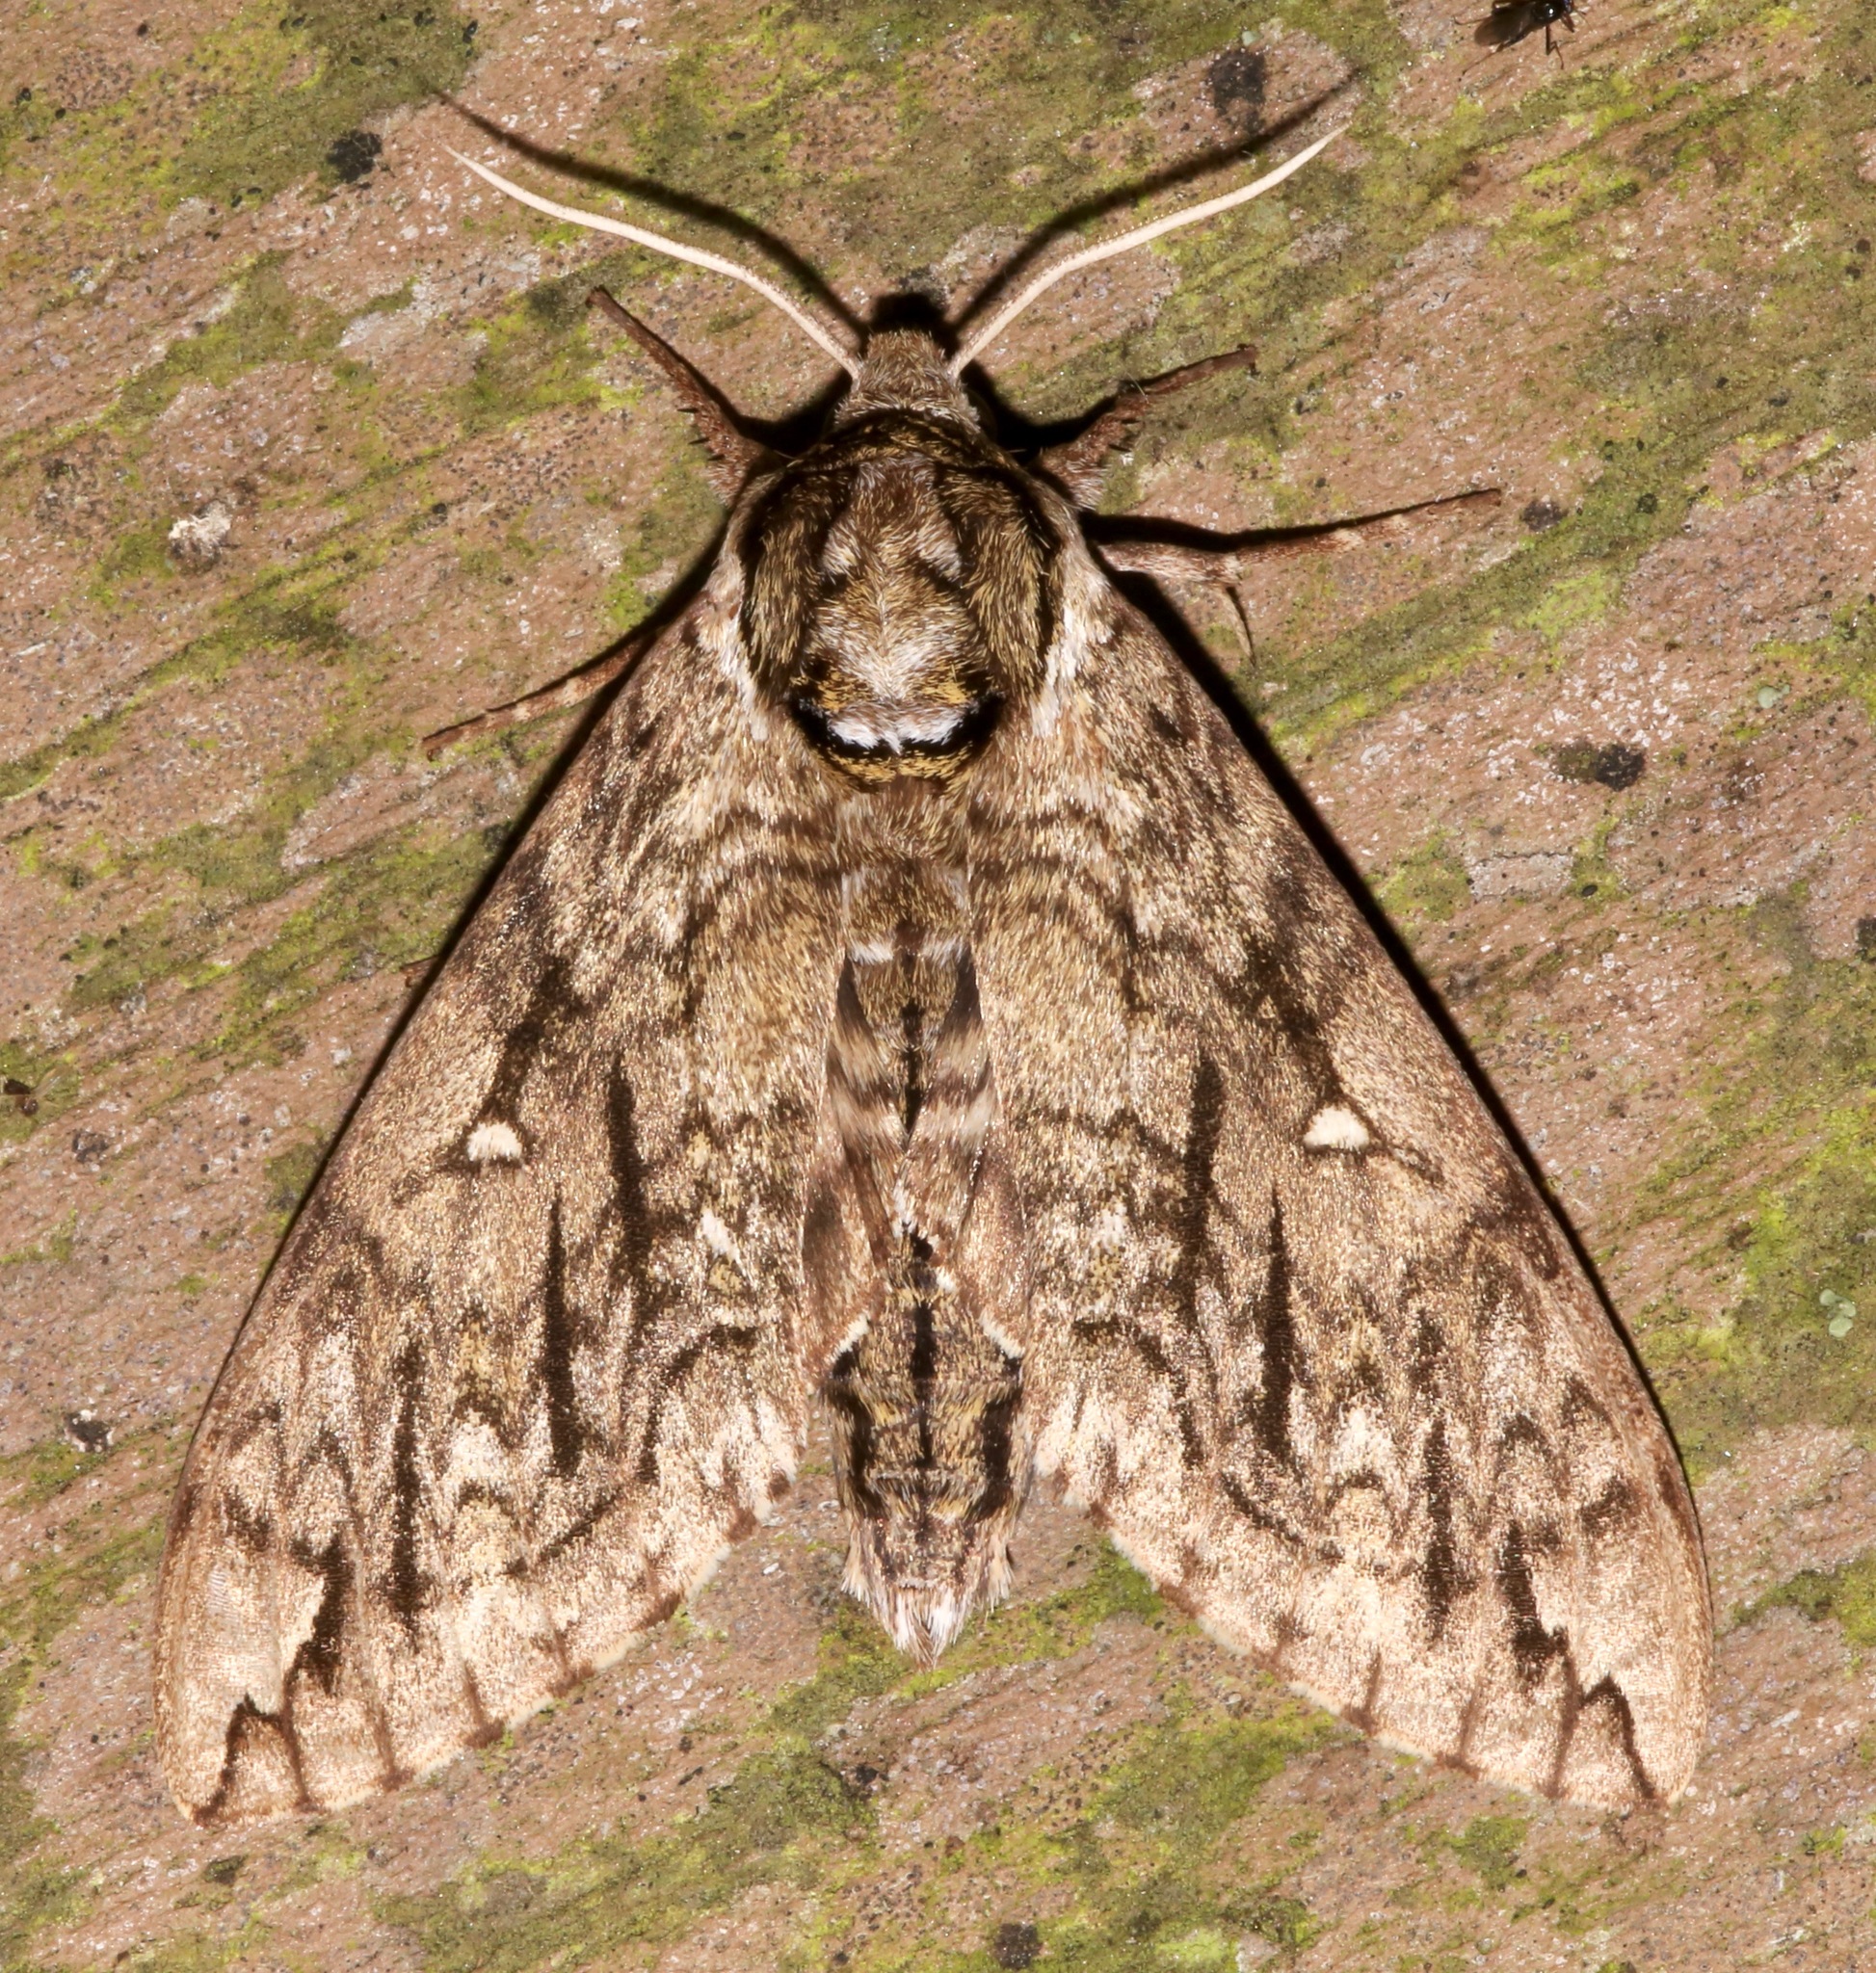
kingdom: Animalia
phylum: Arthropoda
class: Insecta
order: Lepidoptera
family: Sphingidae
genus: Ceratomia
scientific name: Ceratomia undulosa
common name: Waved sphinx
